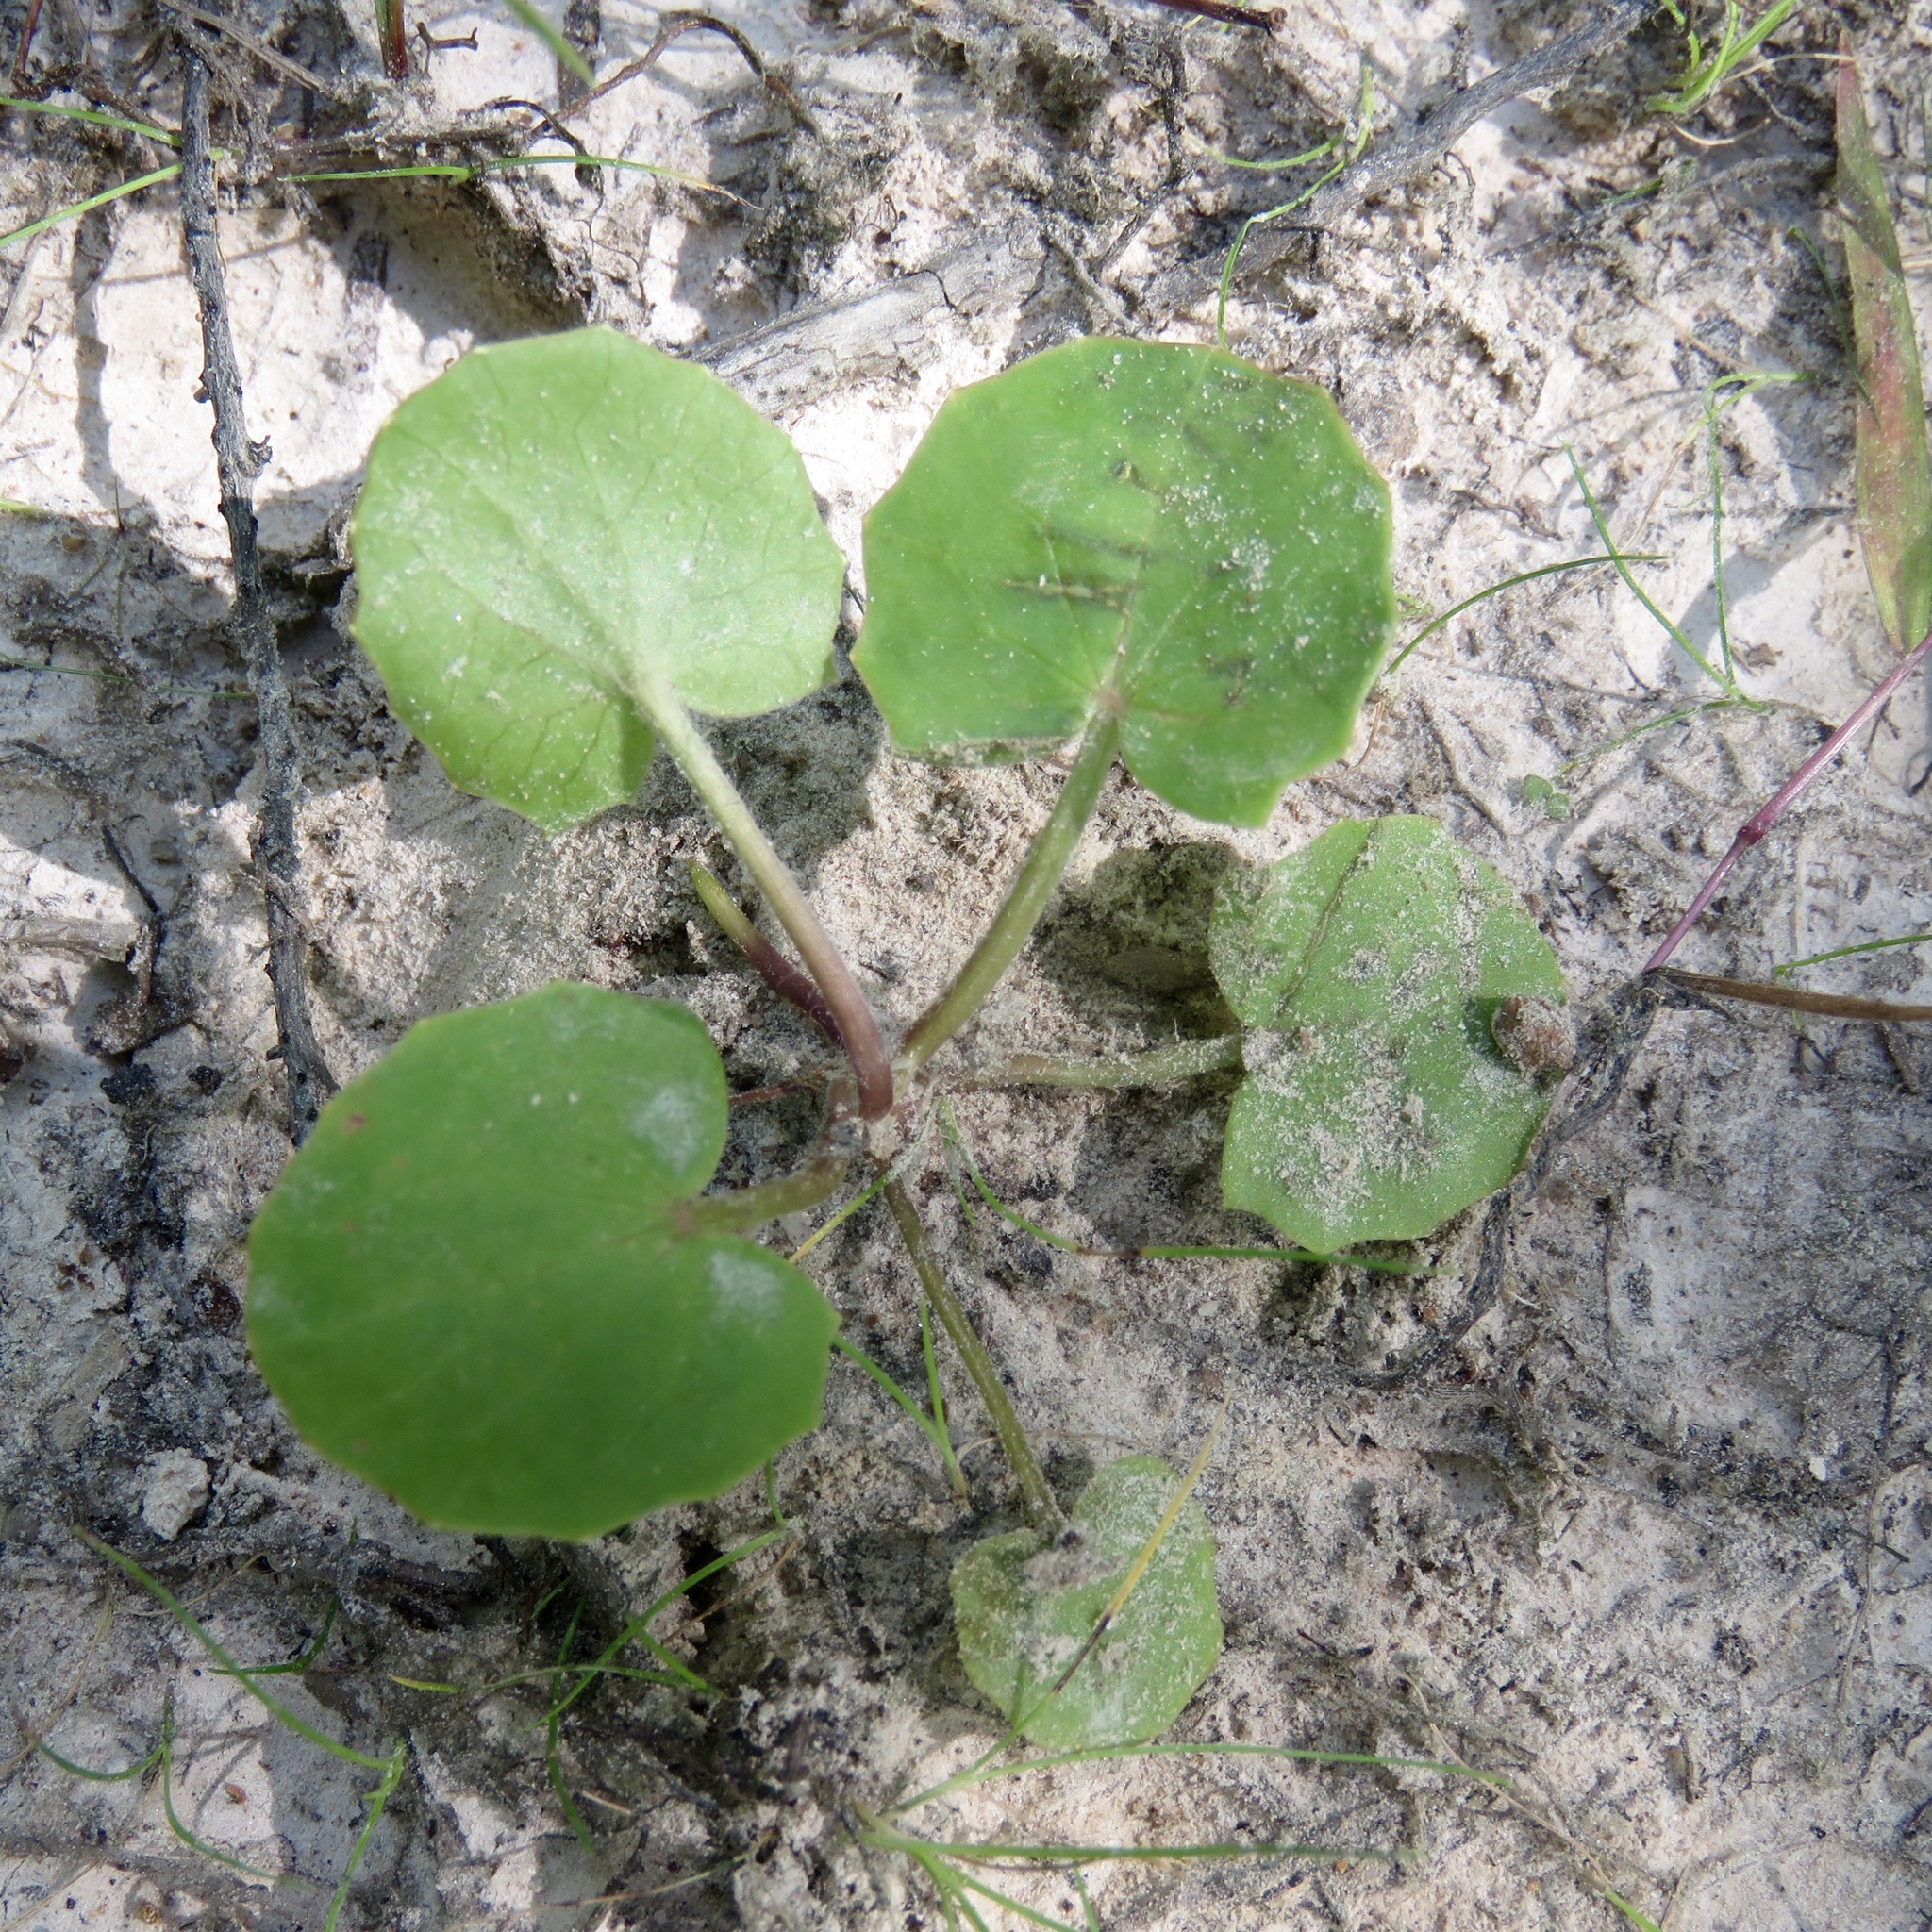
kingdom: Plantae
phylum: Tracheophyta
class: Magnoliopsida
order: Apiales
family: Apiaceae
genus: Centella
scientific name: Centella erecta
